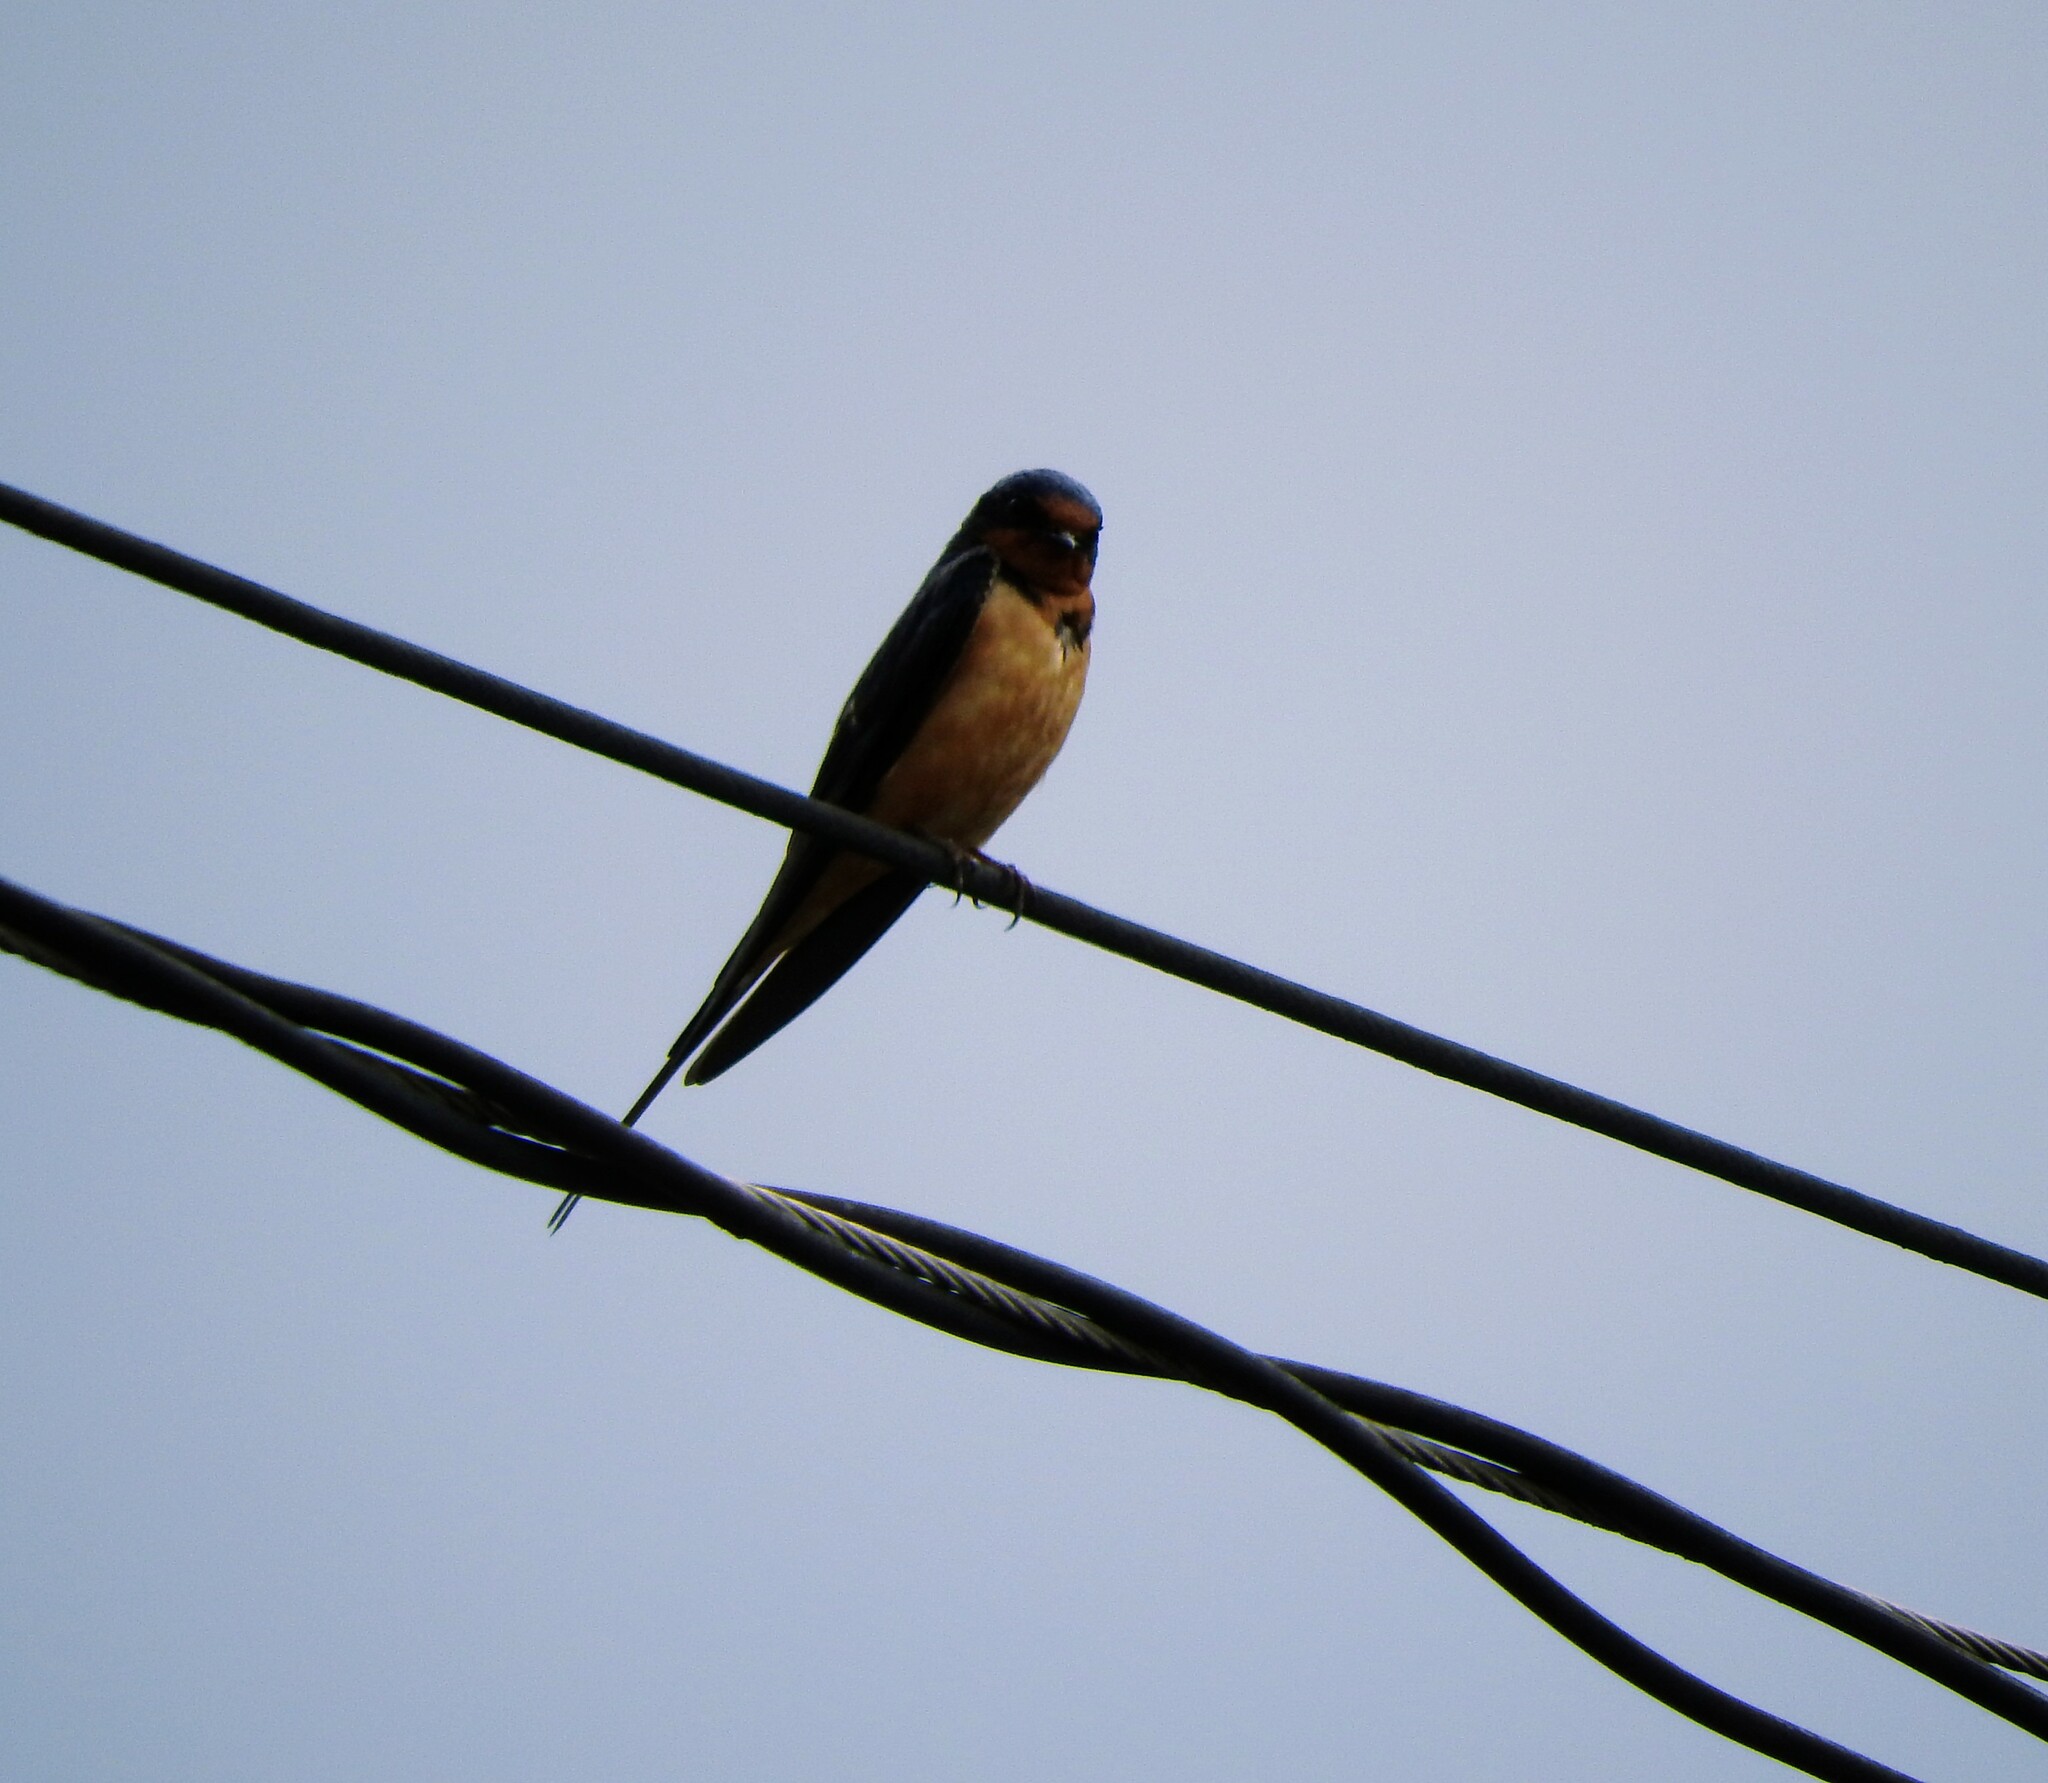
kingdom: Animalia
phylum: Chordata
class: Aves
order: Passeriformes
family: Hirundinidae
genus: Hirundo
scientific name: Hirundo rustica
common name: Barn swallow
